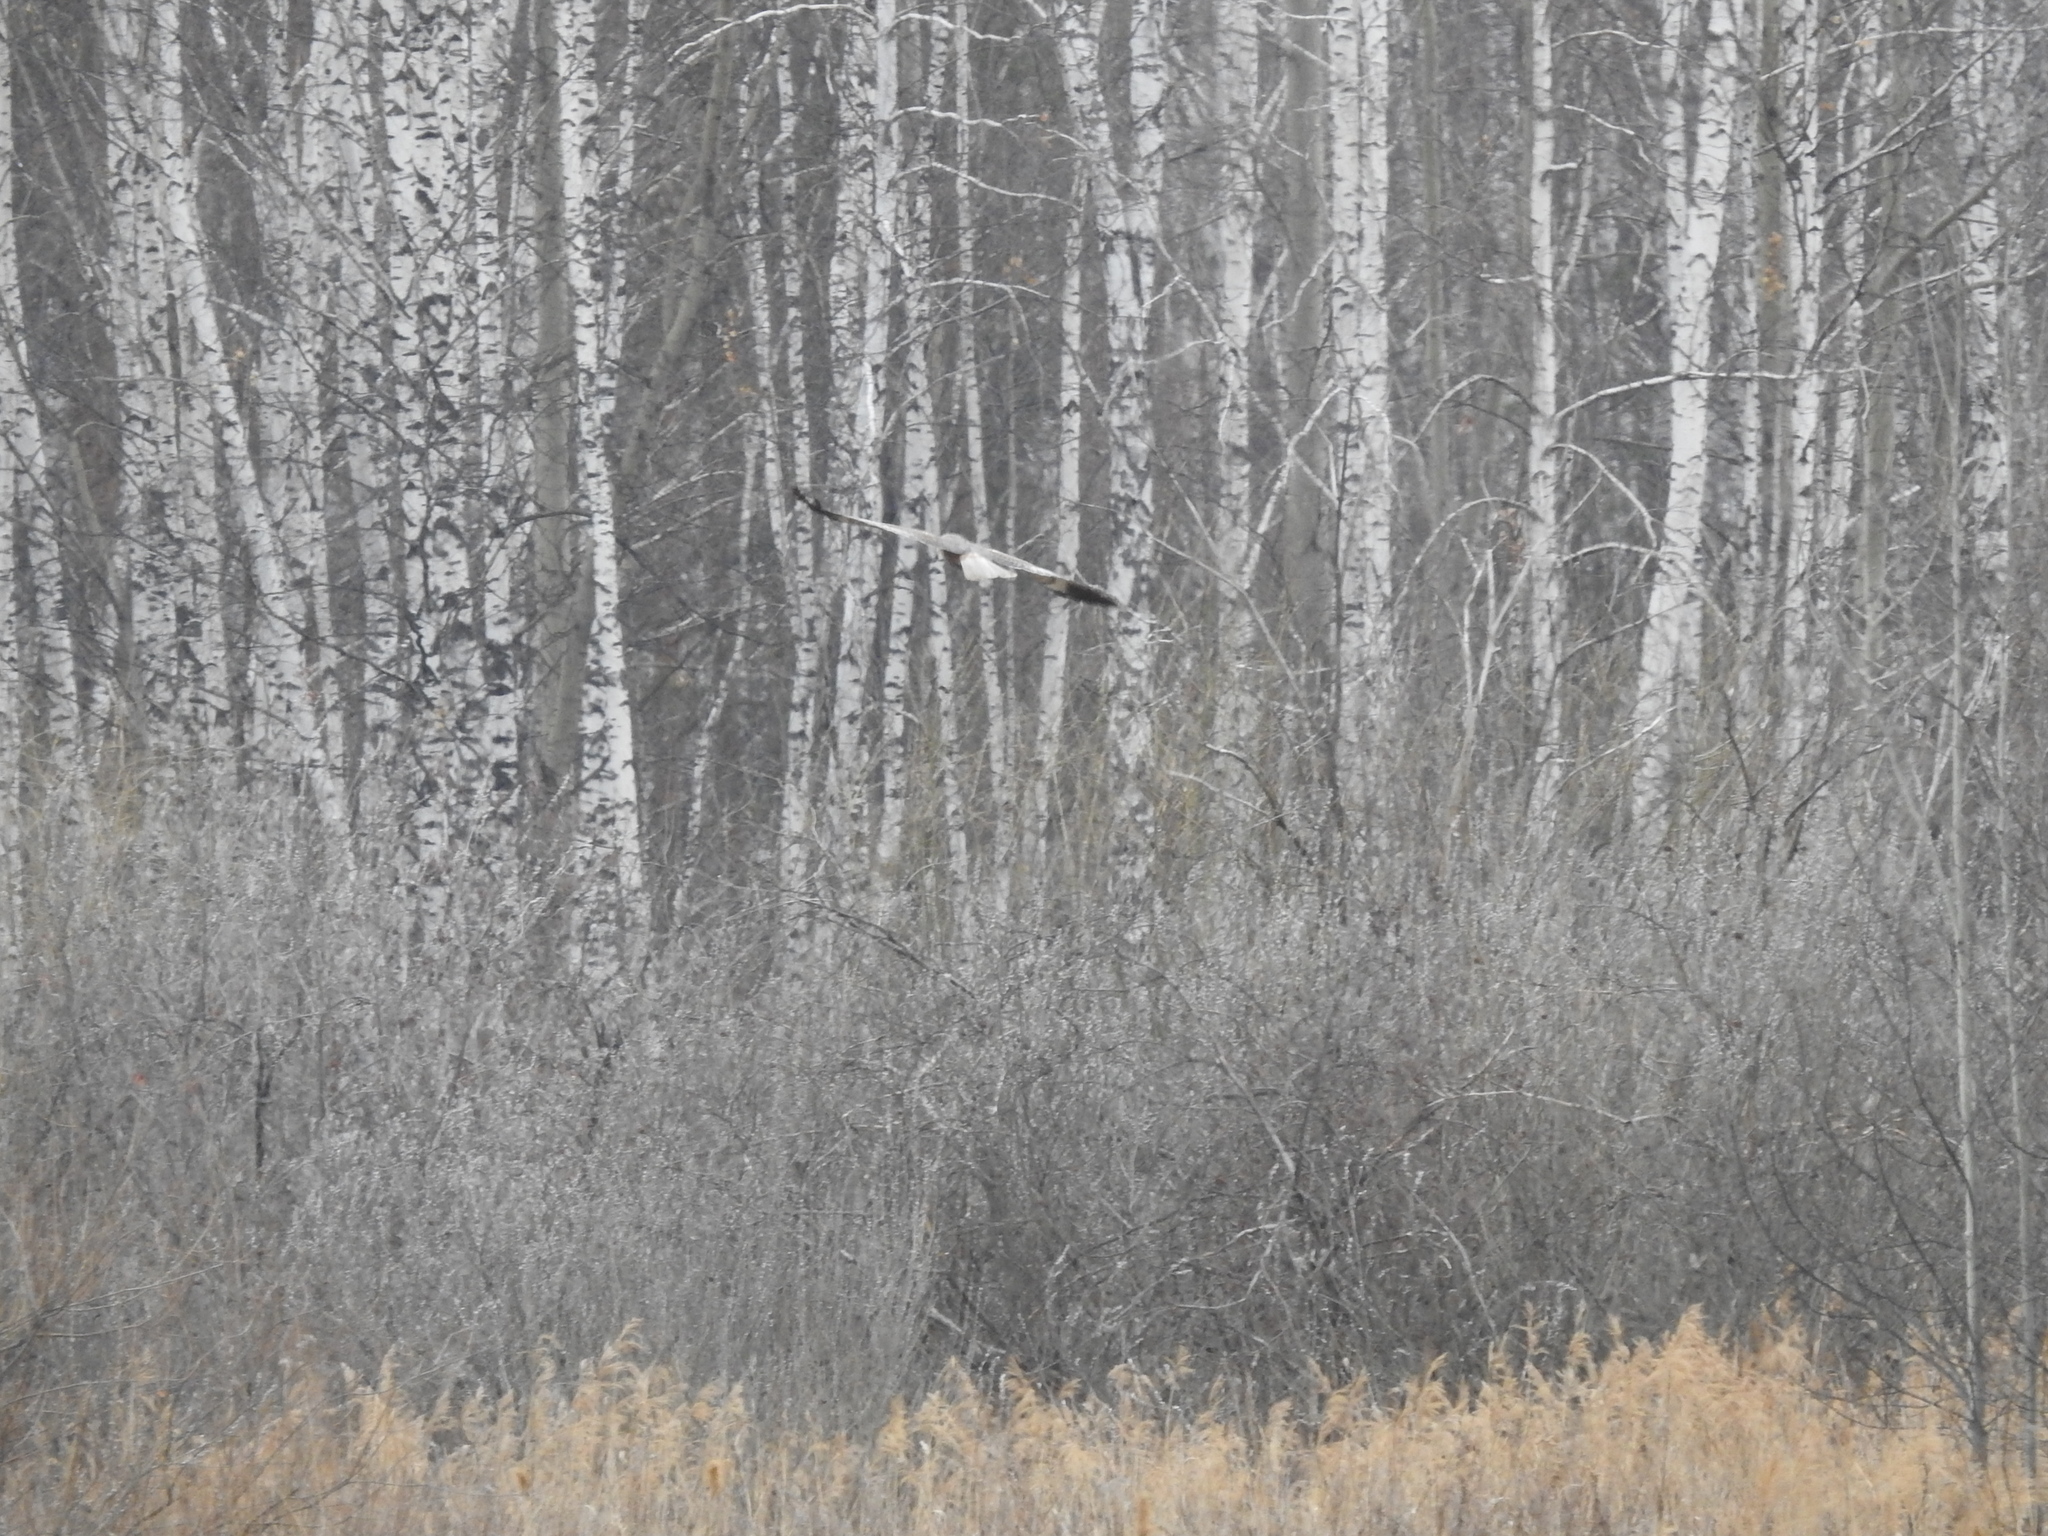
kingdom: Animalia
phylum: Chordata
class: Aves
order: Accipitriformes
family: Accipitridae
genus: Circus
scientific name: Circus aeruginosus
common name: Western marsh harrier
